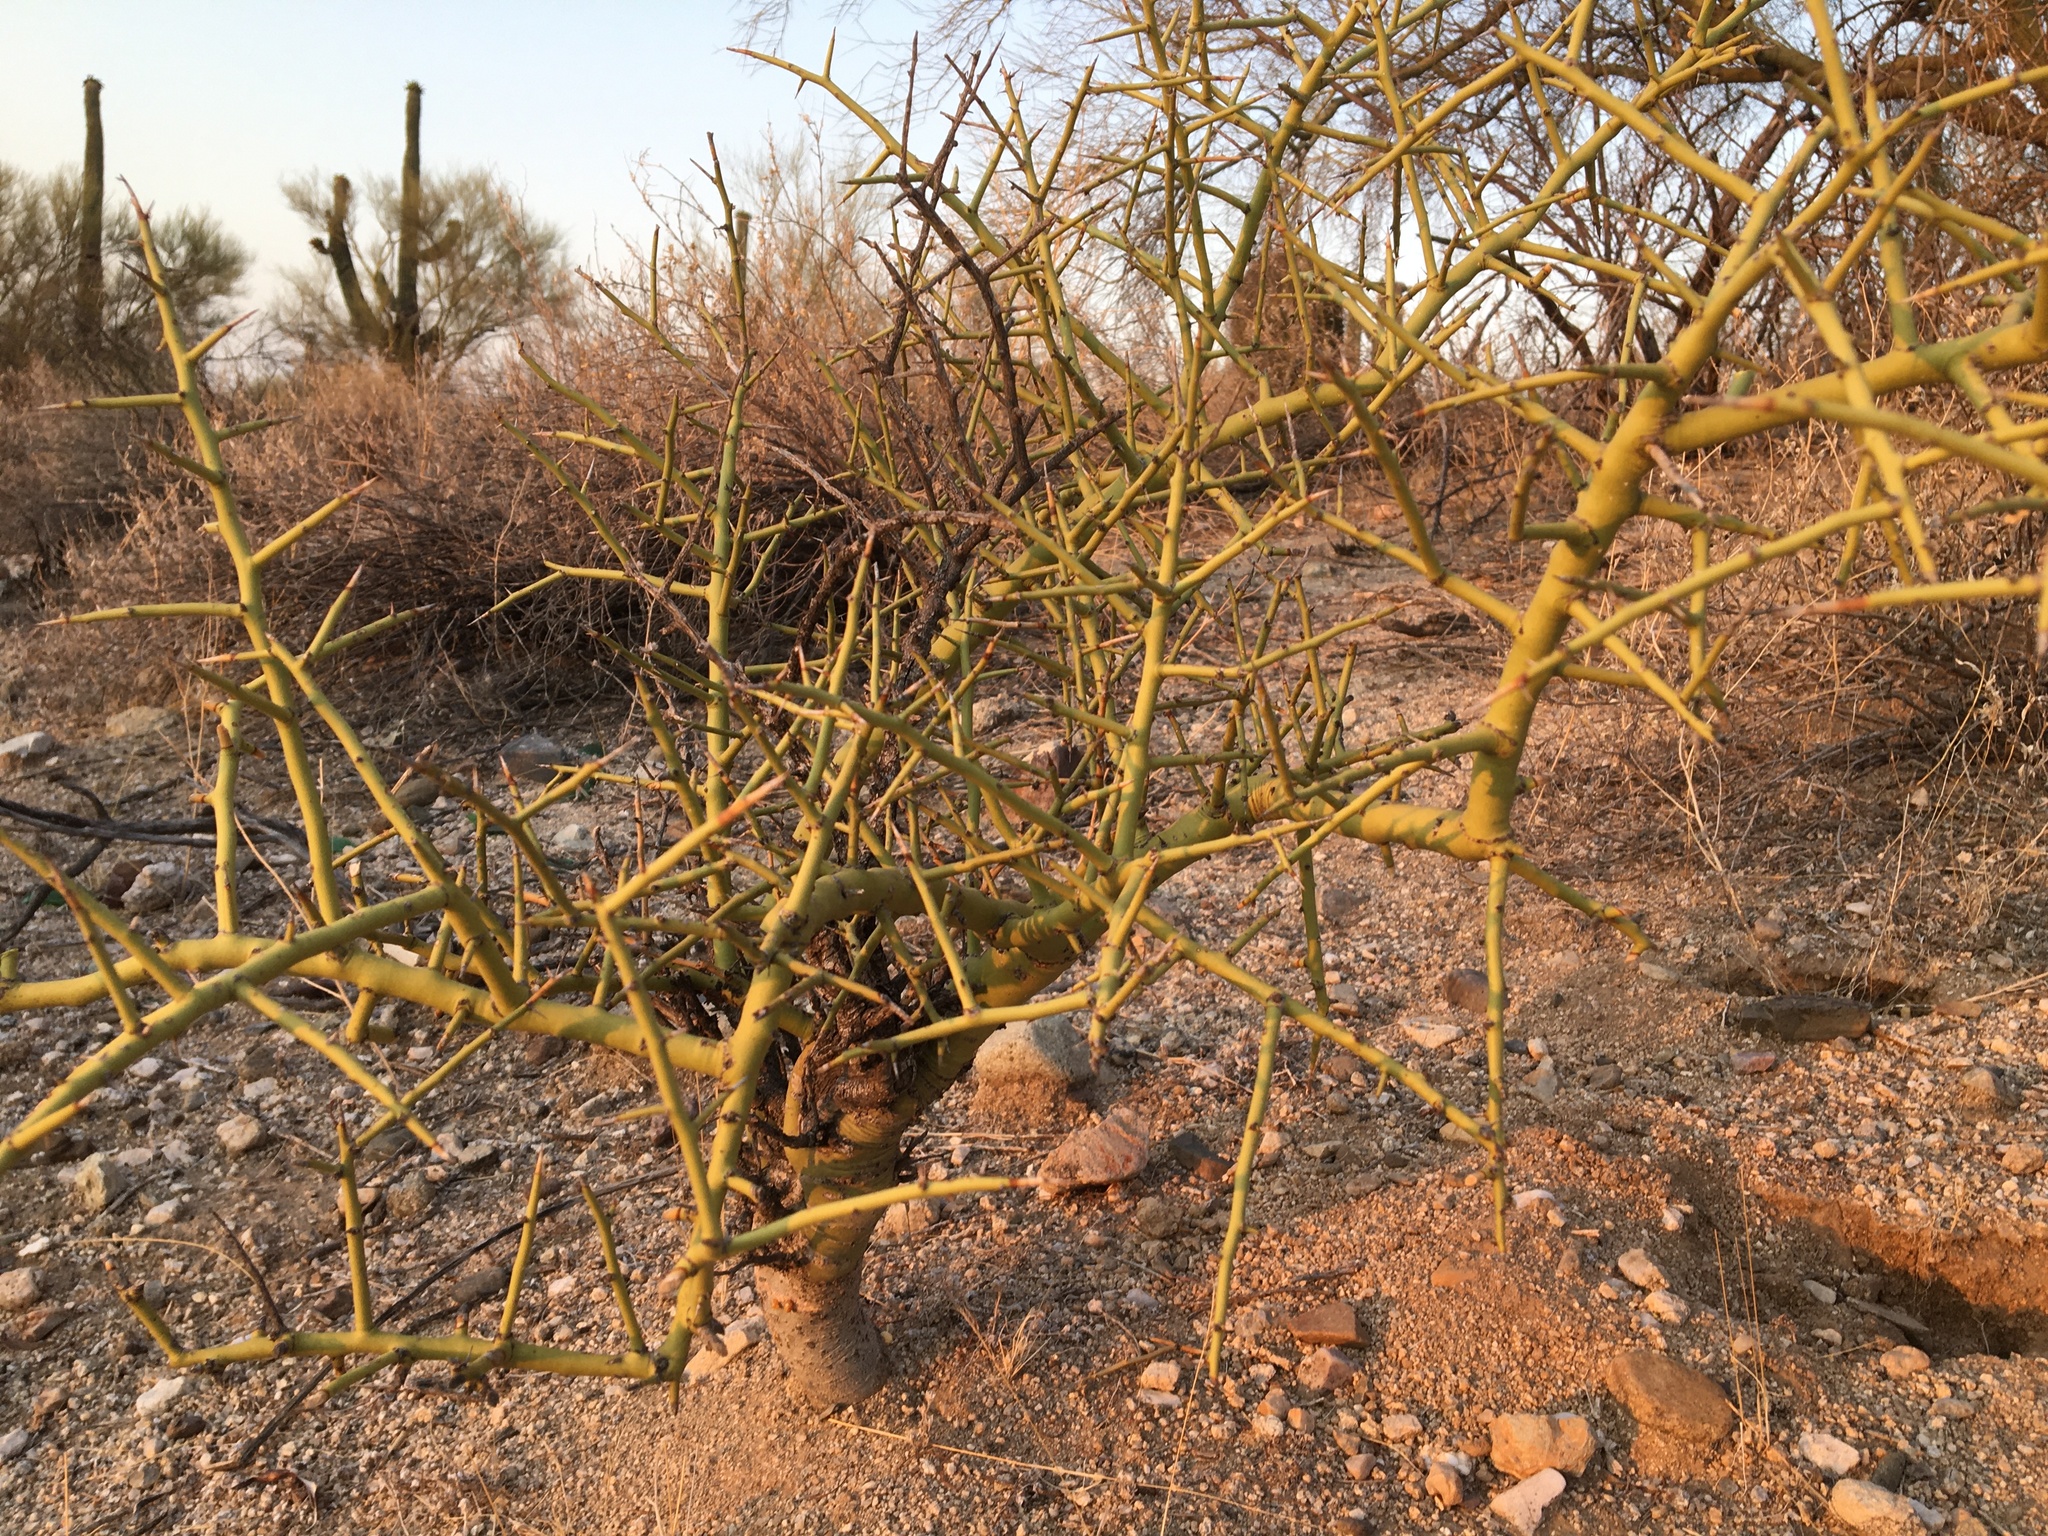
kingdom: Plantae
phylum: Tracheophyta
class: Magnoliopsida
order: Fabales
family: Fabaceae
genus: Parkinsonia
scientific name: Parkinsonia microphylla
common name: Yellow paloverde
